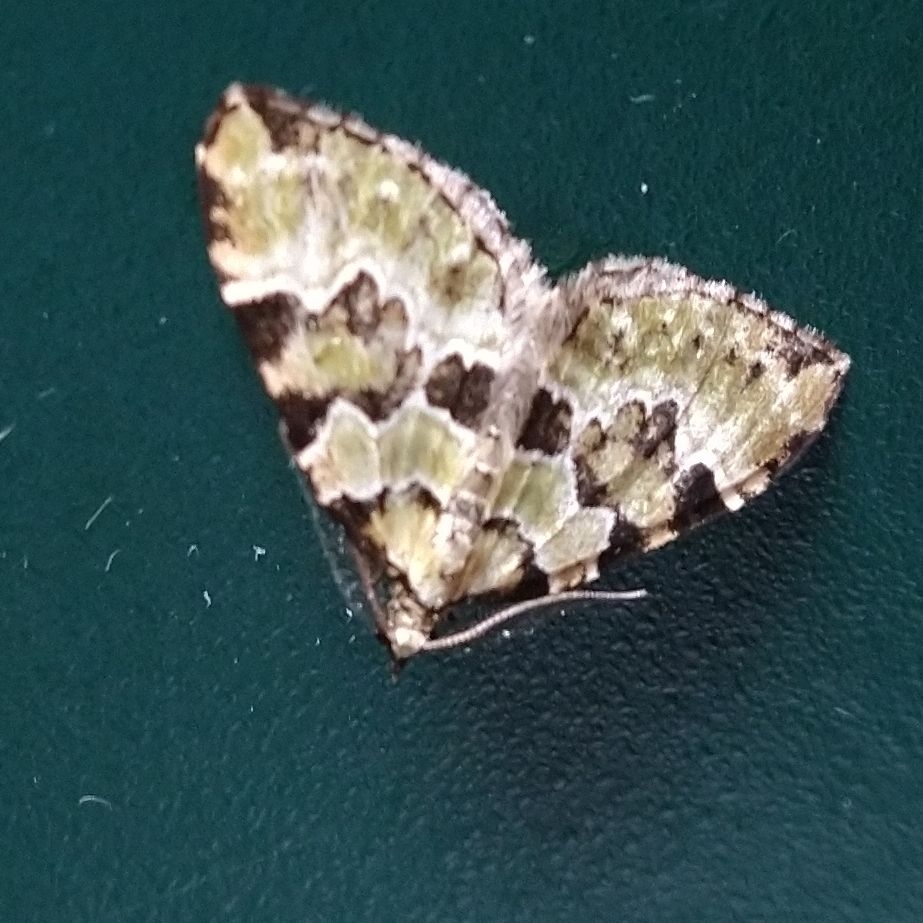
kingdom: Animalia
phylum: Arthropoda
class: Insecta
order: Lepidoptera
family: Geometridae
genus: Colostygia
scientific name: Colostygia pectinataria
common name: Green carpet
